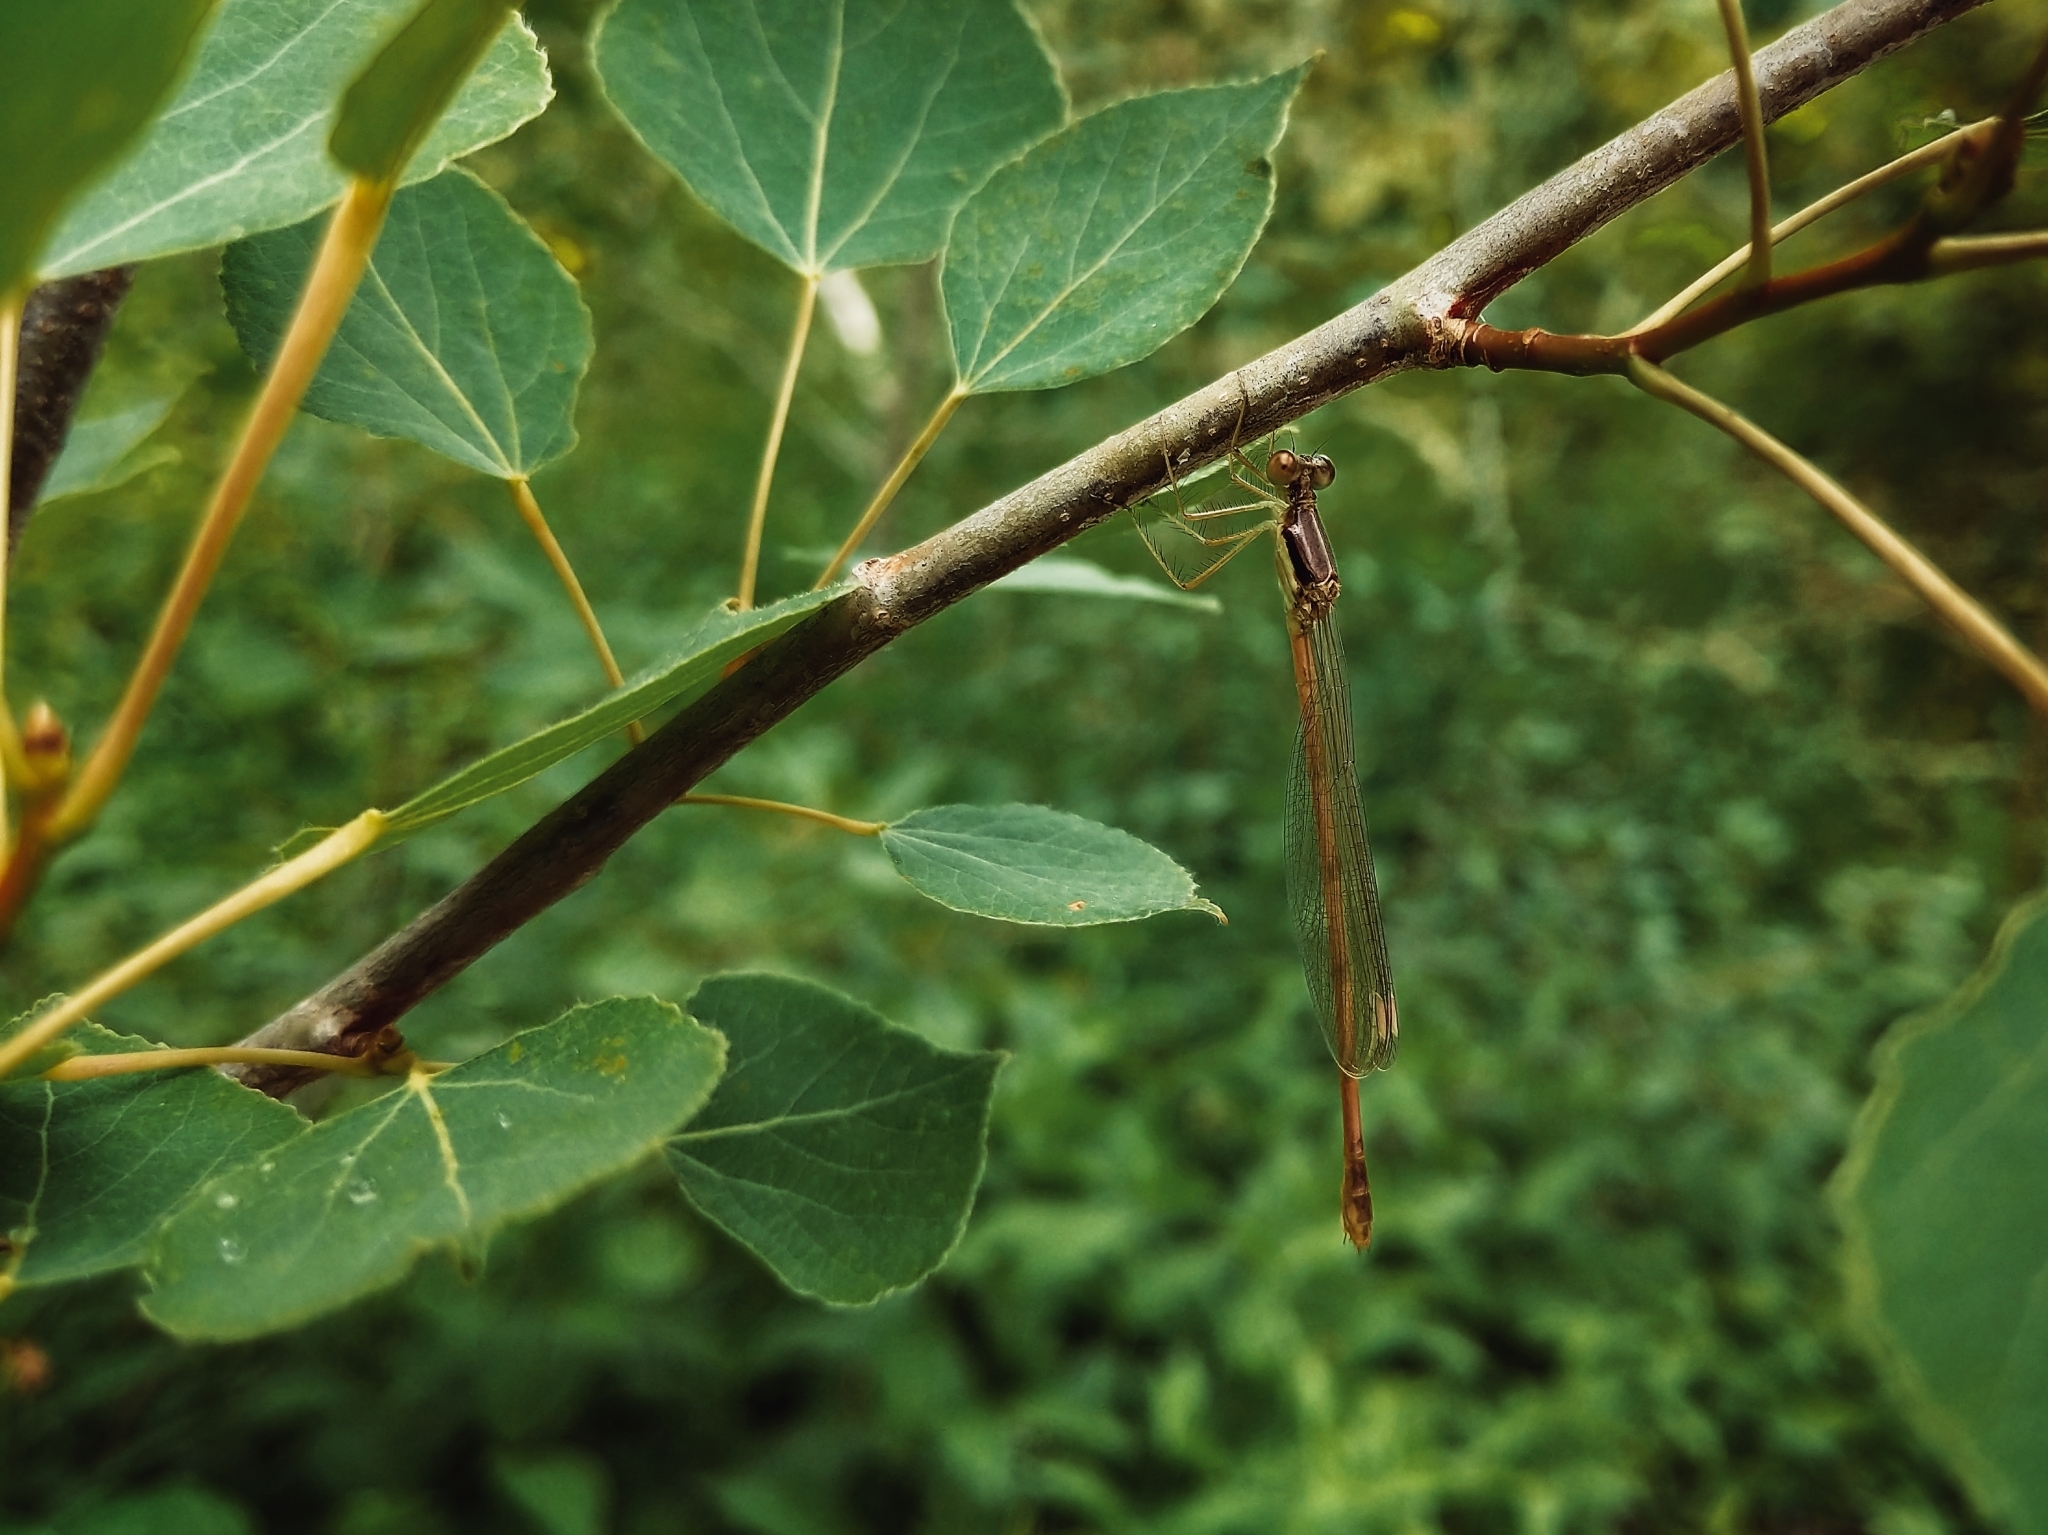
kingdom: Animalia
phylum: Arthropoda
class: Insecta
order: Odonata
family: Lestidae
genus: Lestes
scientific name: Lestes rectangularis
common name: Slender spreadwing
